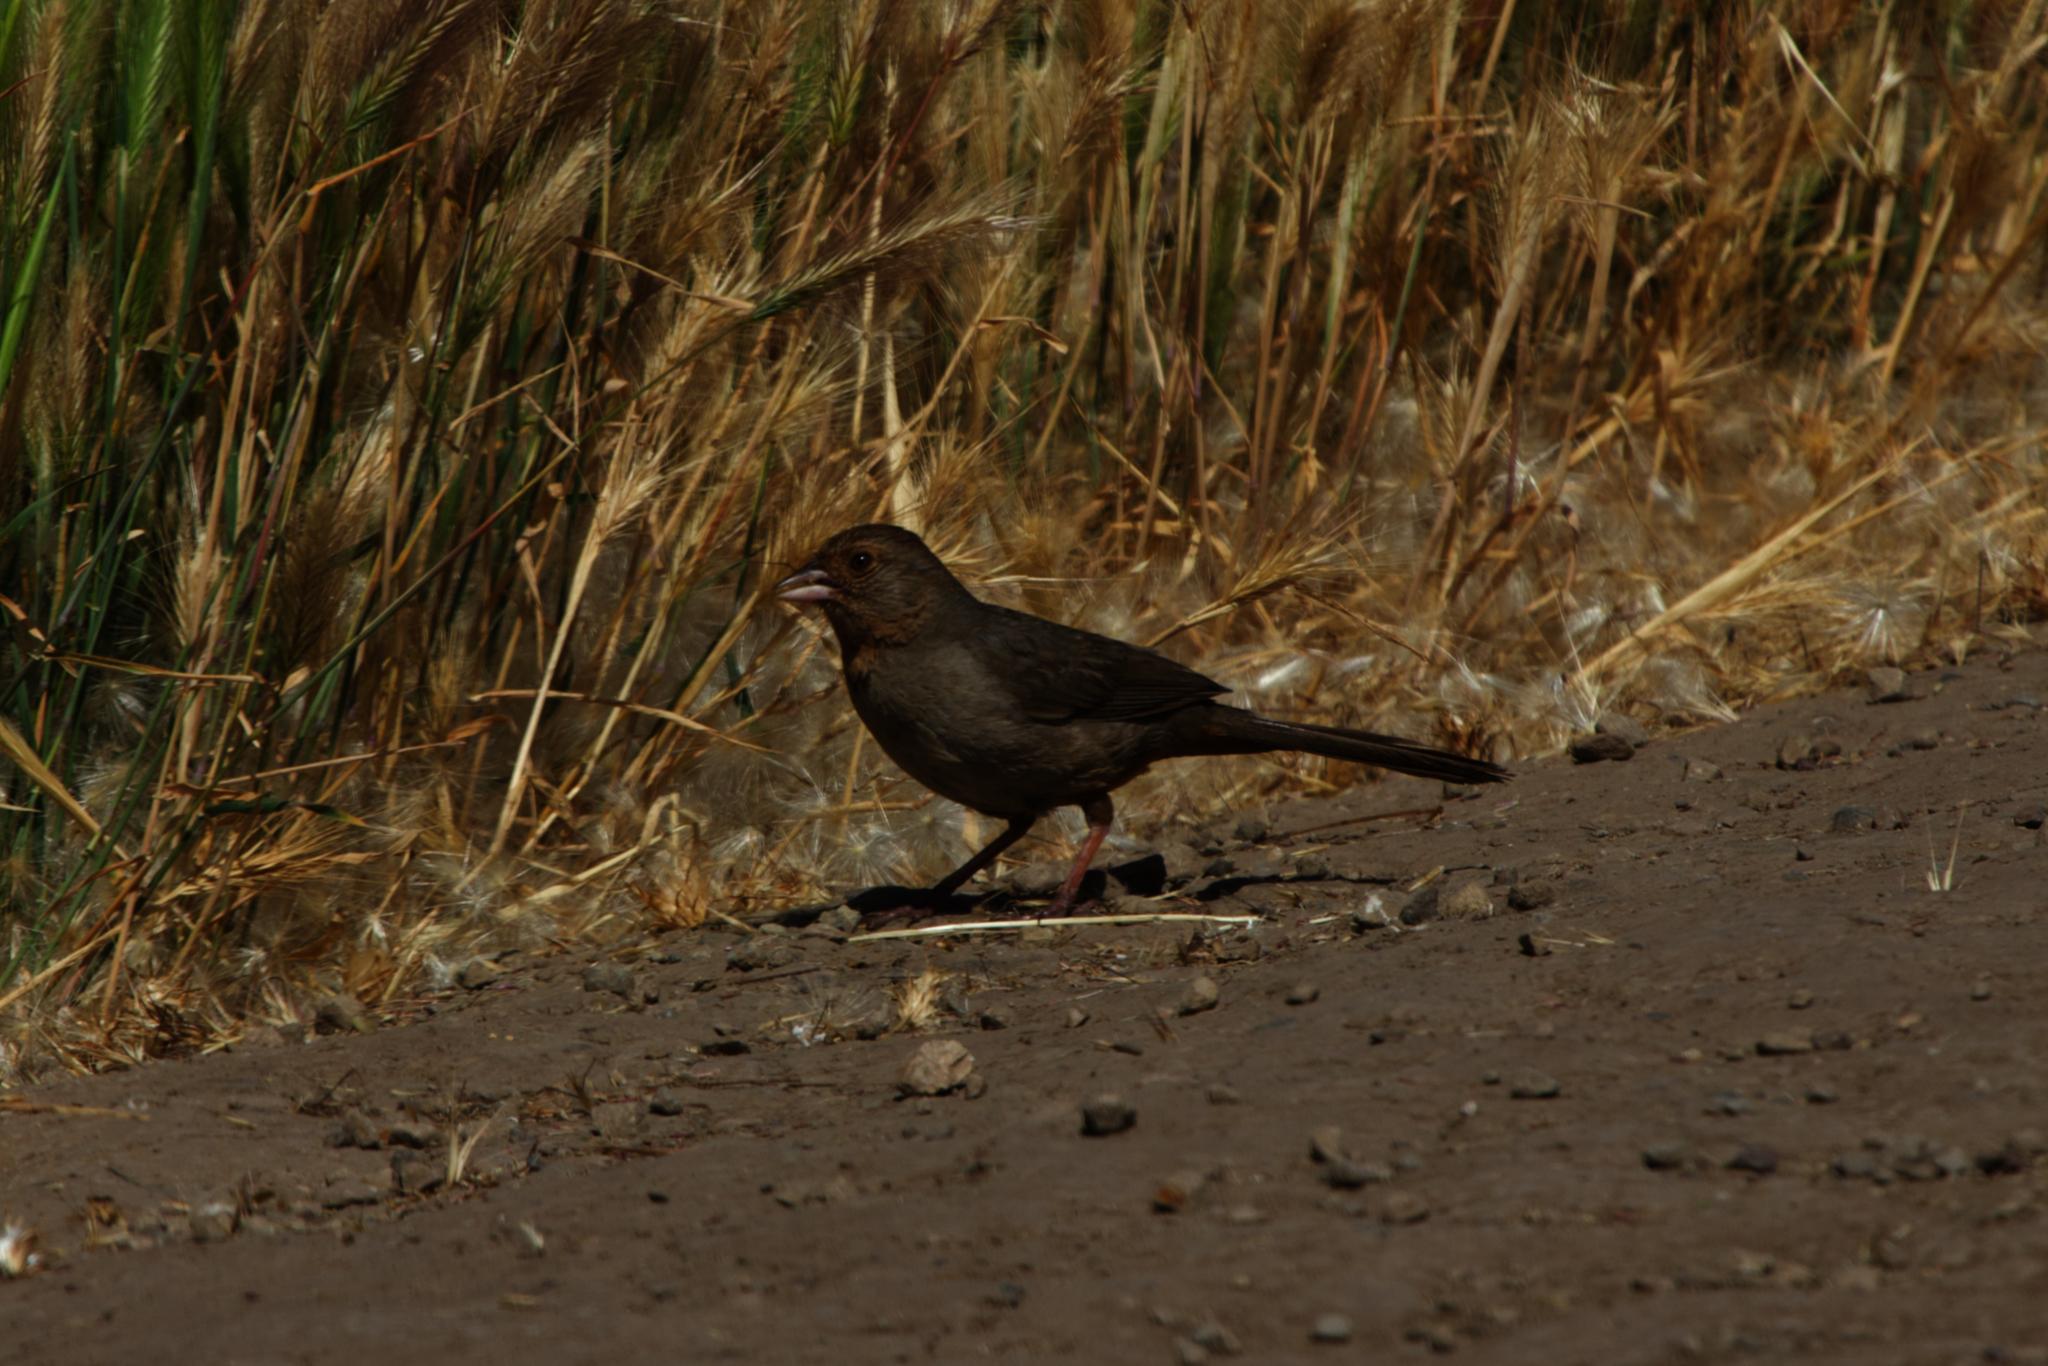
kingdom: Animalia
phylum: Chordata
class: Aves
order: Passeriformes
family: Passerellidae
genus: Melozone
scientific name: Melozone crissalis
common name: California towhee
